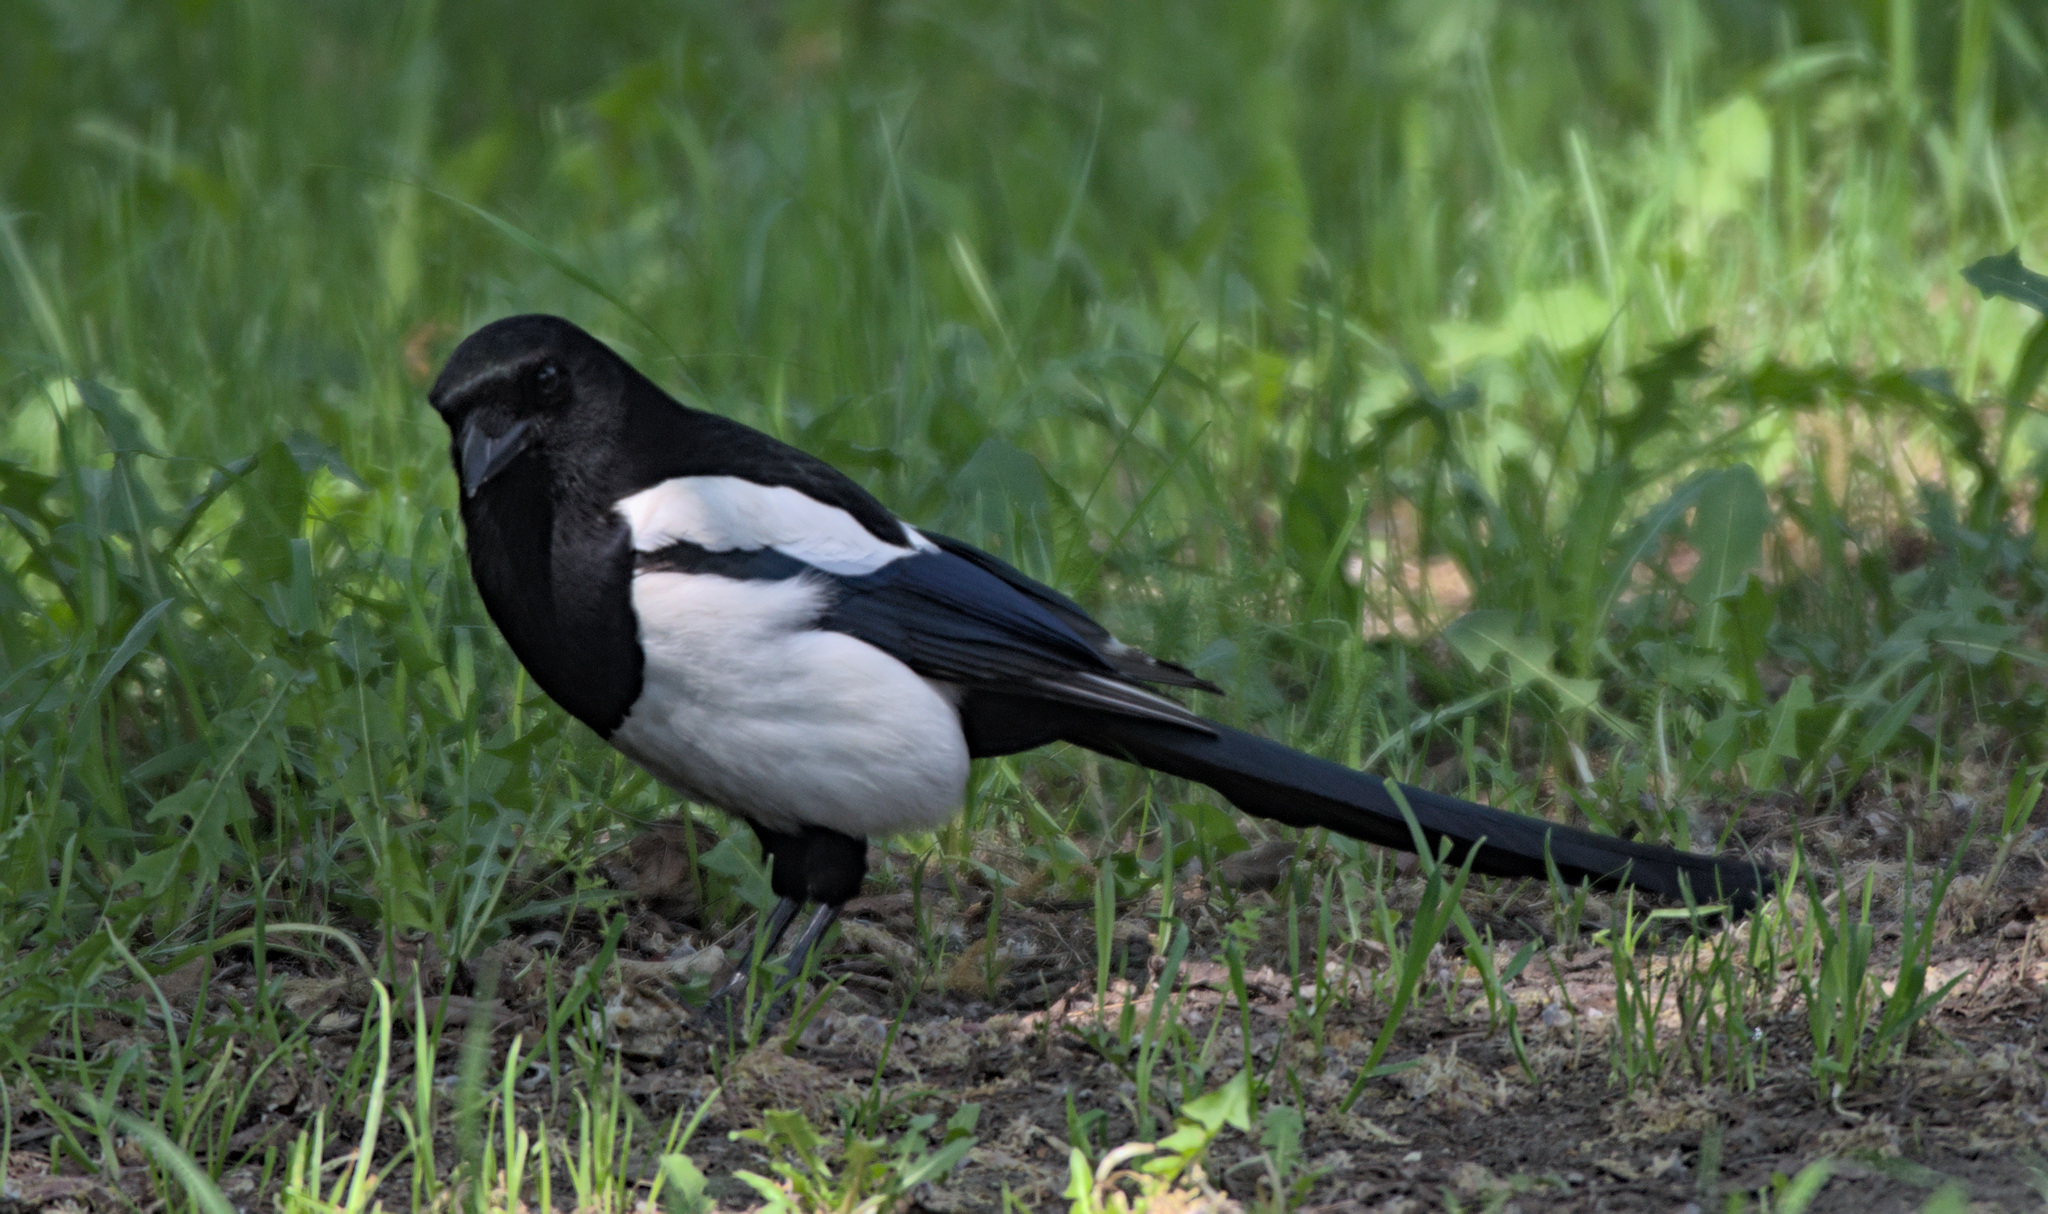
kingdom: Animalia
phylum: Chordata
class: Aves
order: Passeriformes
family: Corvidae
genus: Pica
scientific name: Pica pica
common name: Eurasian magpie
